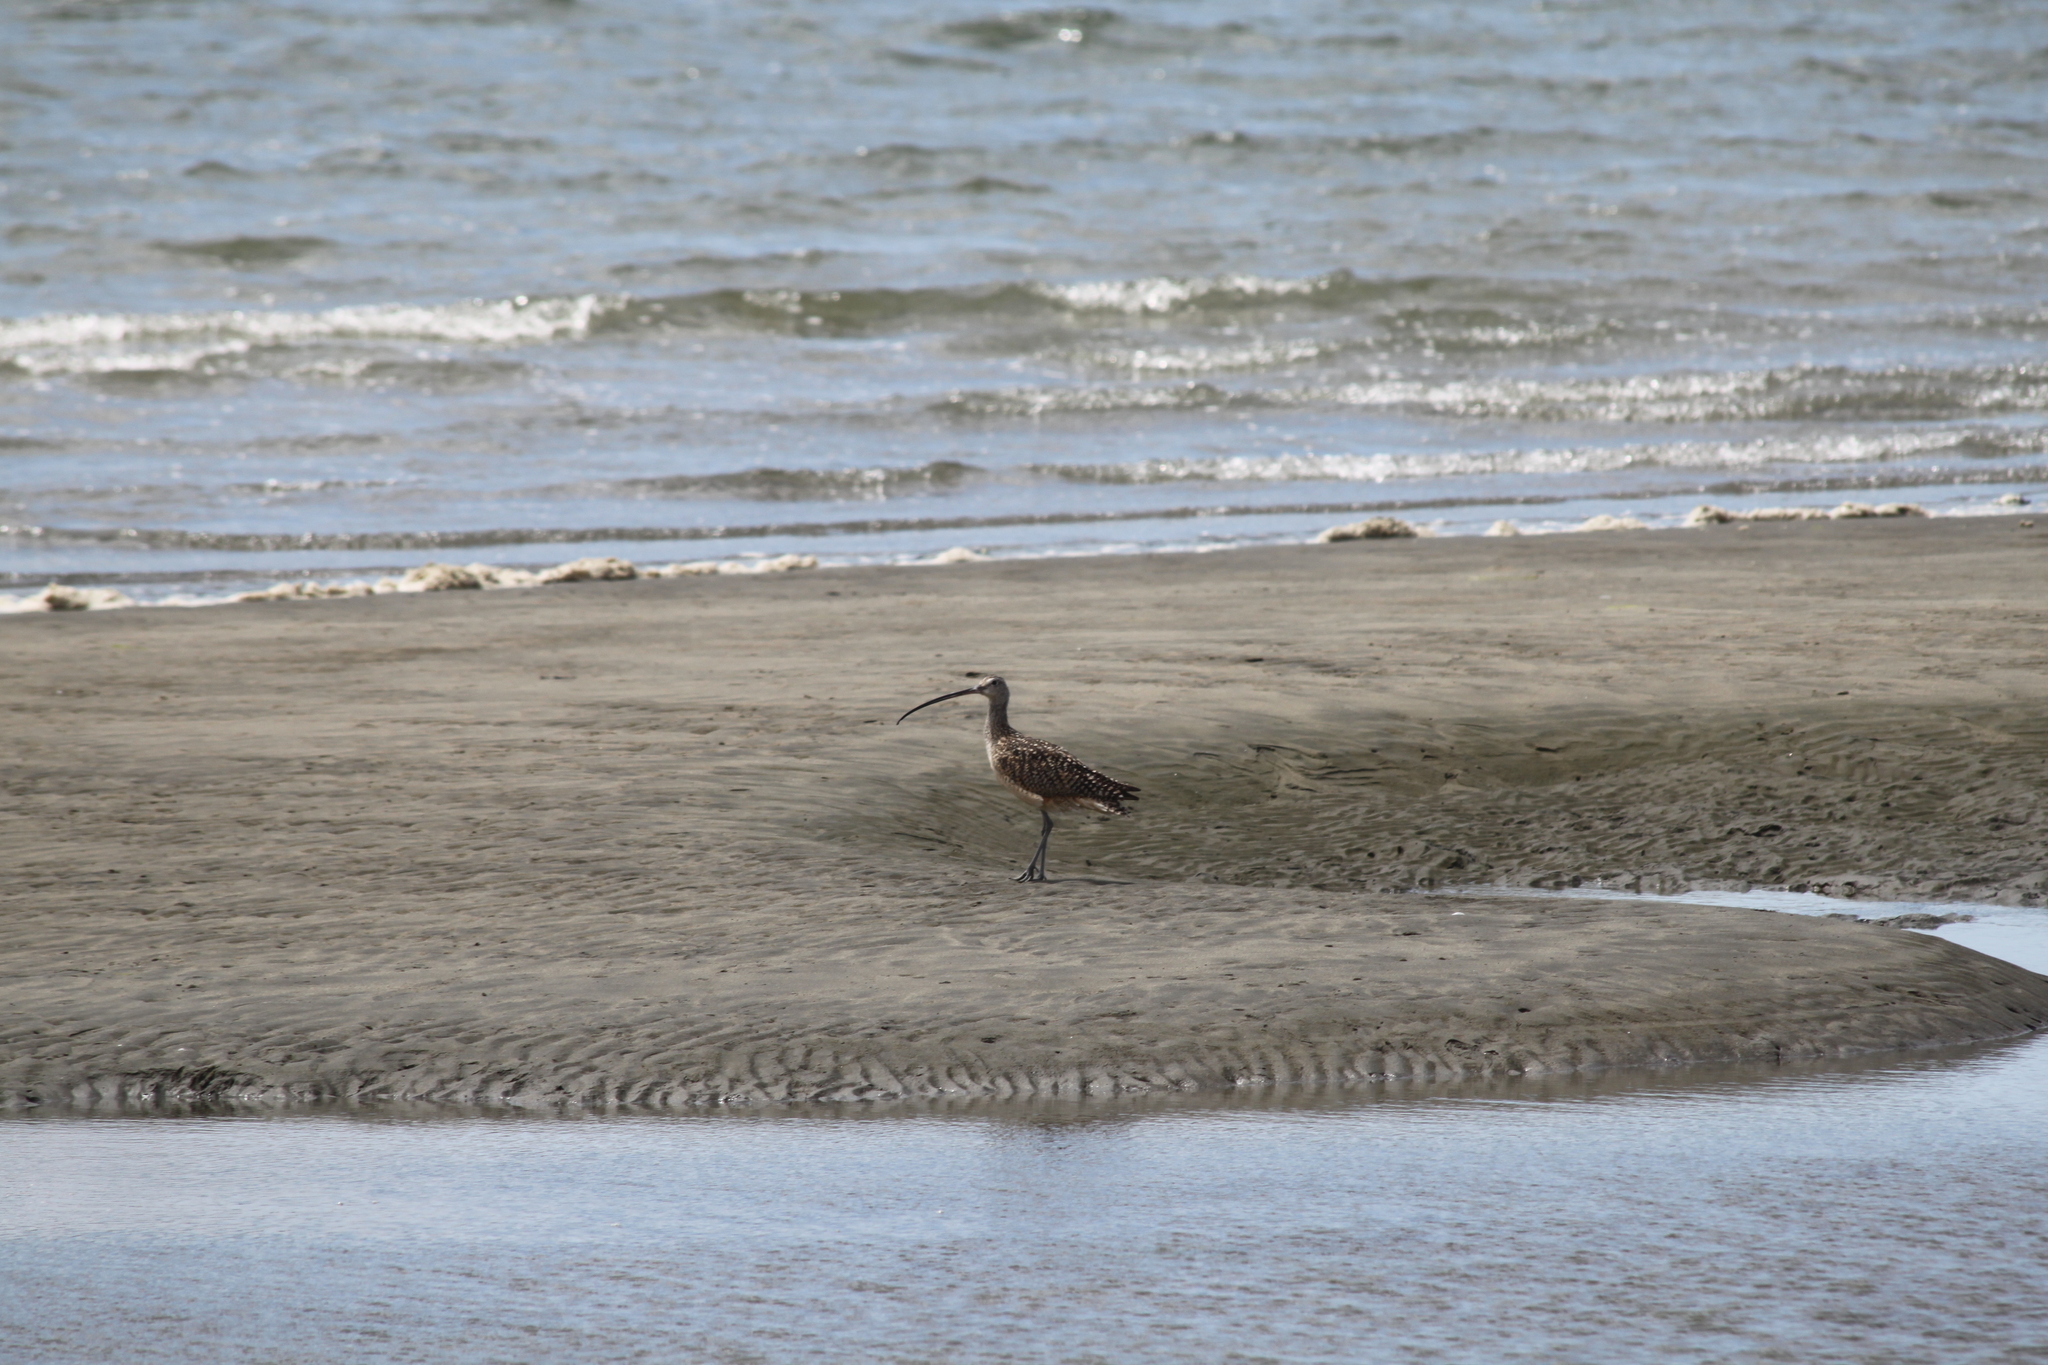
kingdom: Animalia
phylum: Chordata
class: Aves
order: Charadriiformes
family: Scolopacidae
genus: Numenius
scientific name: Numenius americanus
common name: Long-billed curlew
